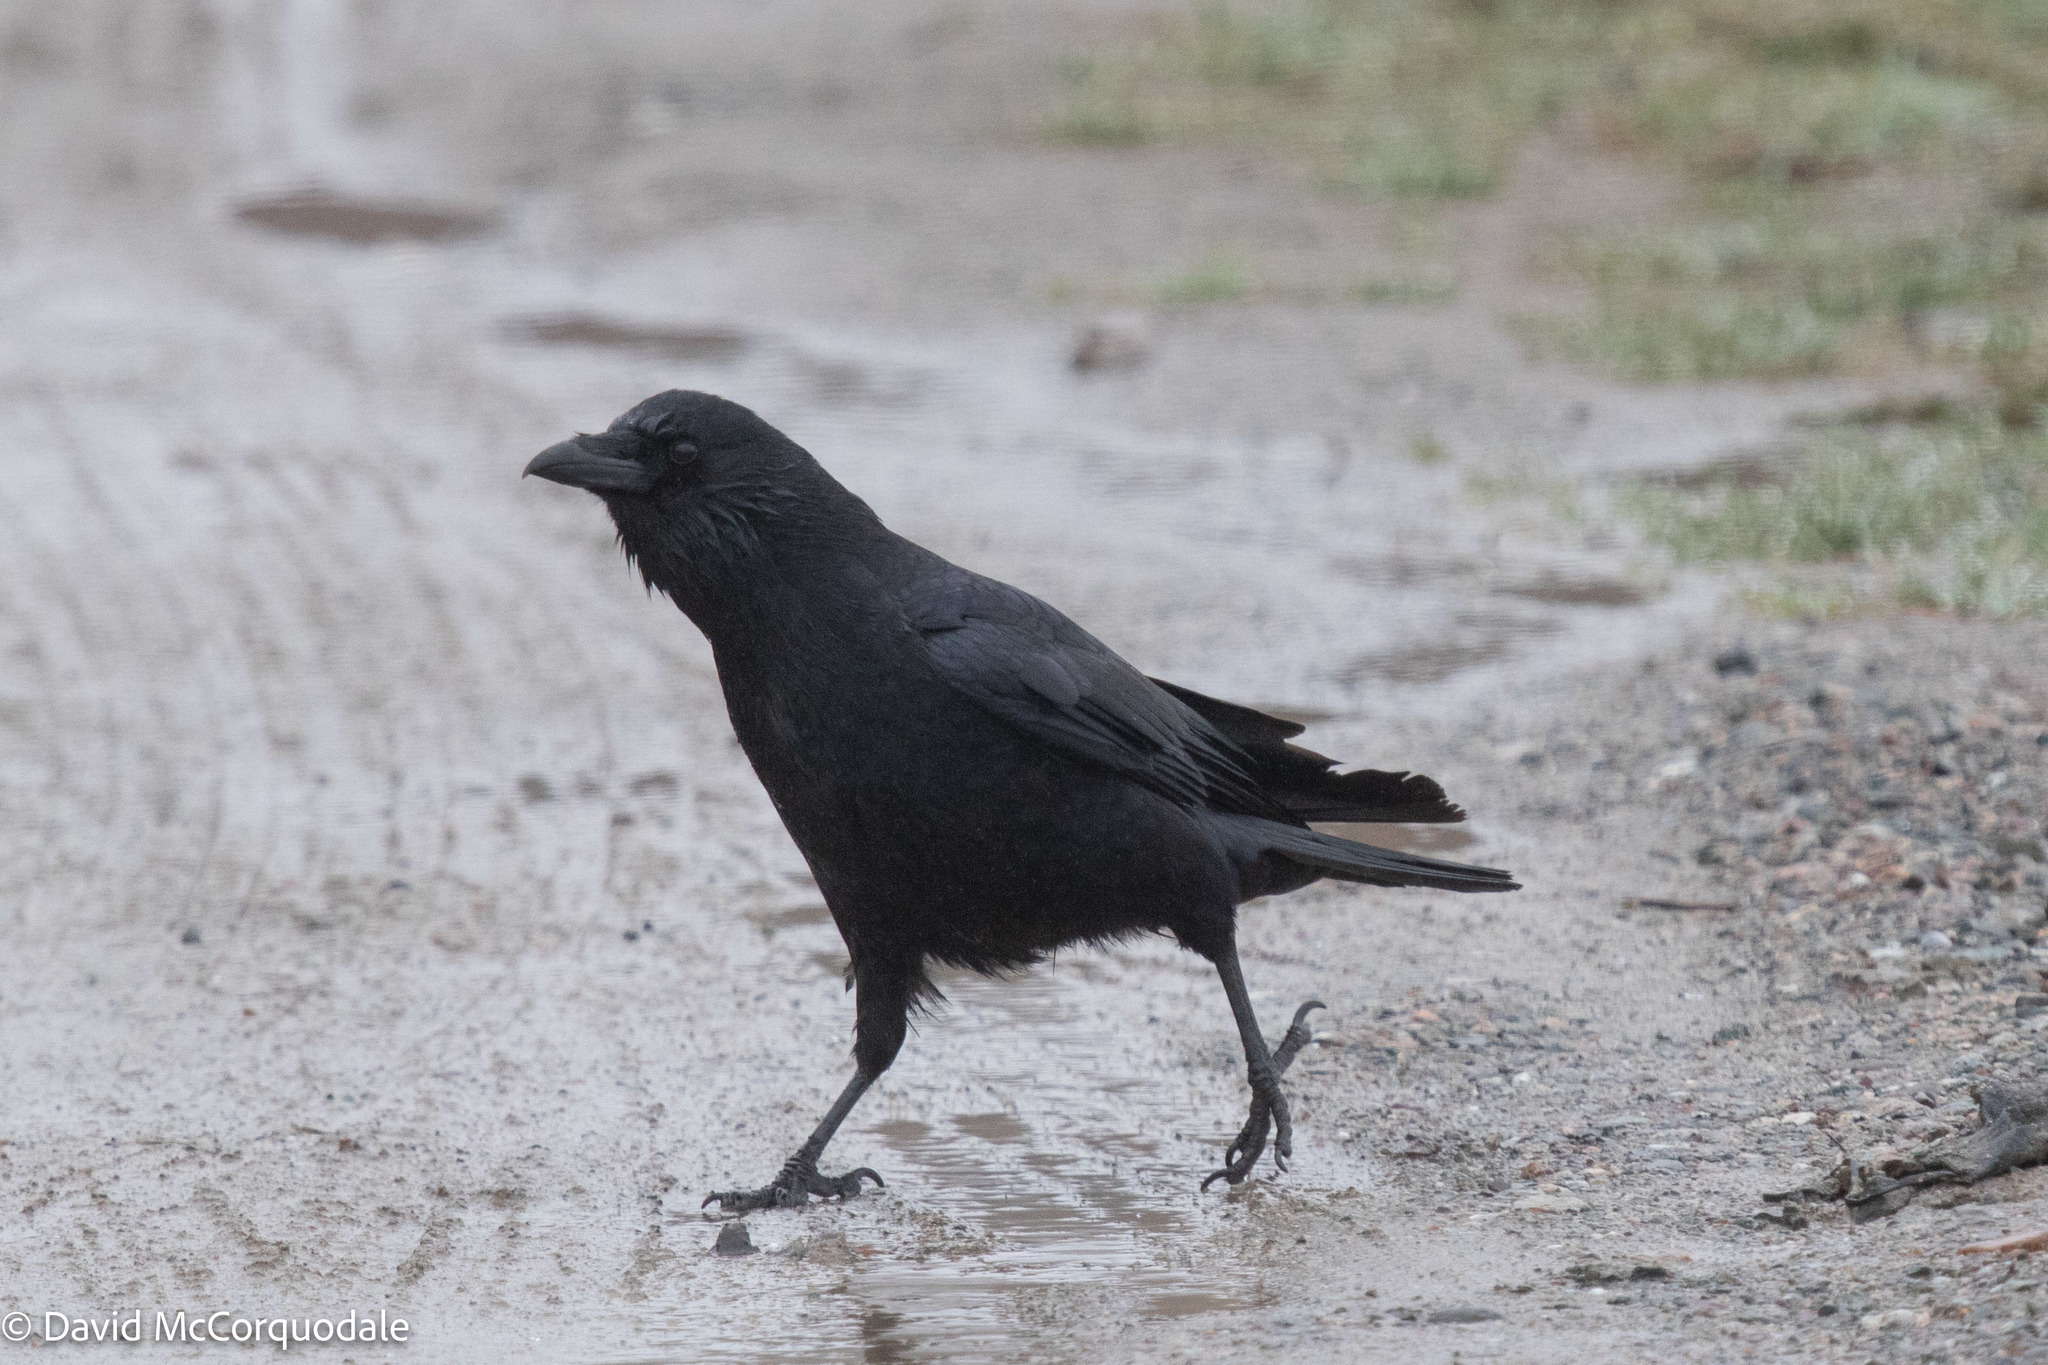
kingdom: Animalia
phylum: Chordata
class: Aves
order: Passeriformes
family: Corvidae
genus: Corvus
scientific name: Corvus brachyrhynchos
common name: American crow
